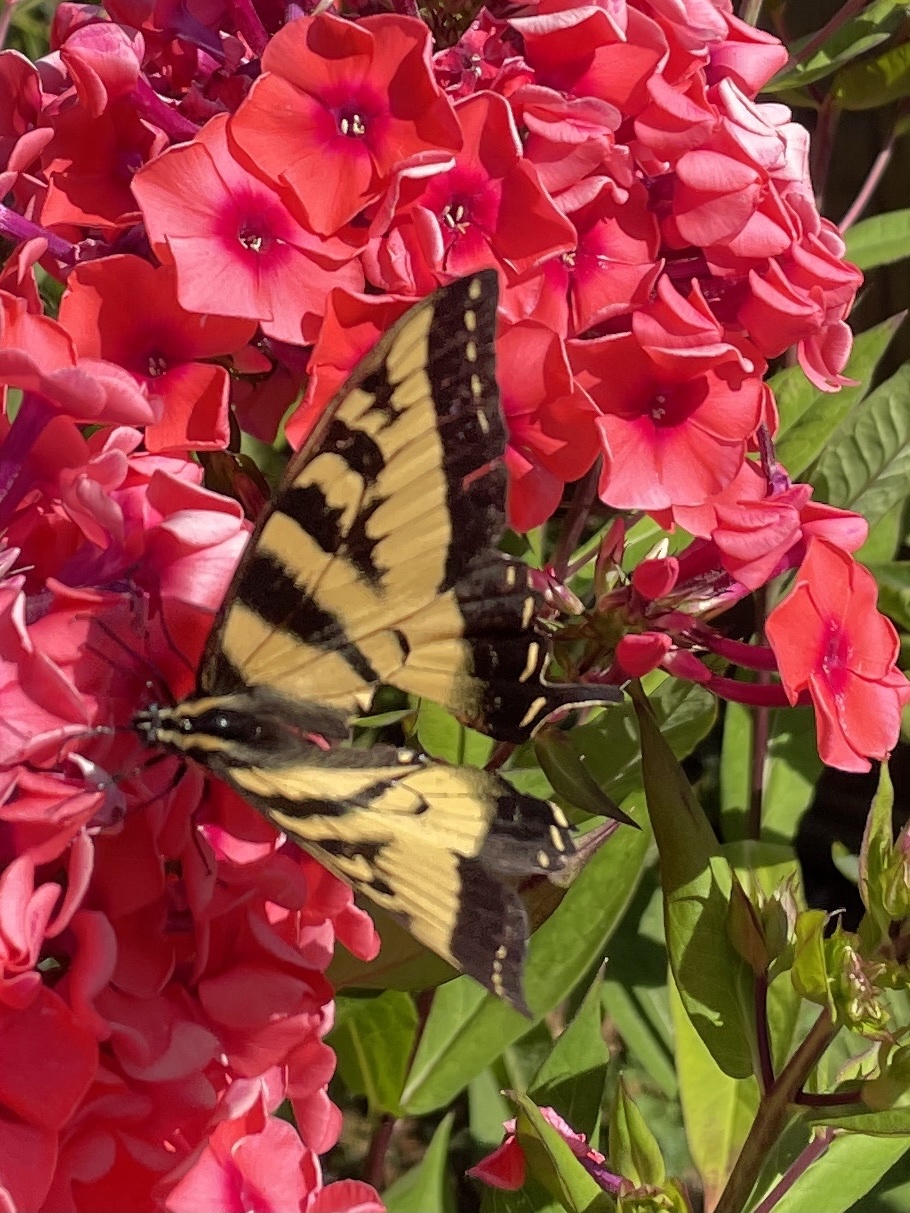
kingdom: Animalia
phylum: Arthropoda
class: Insecta
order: Lepidoptera
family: Papilionidae
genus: Papilio
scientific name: Papilio rutulus
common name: Western tiger swallowtail
